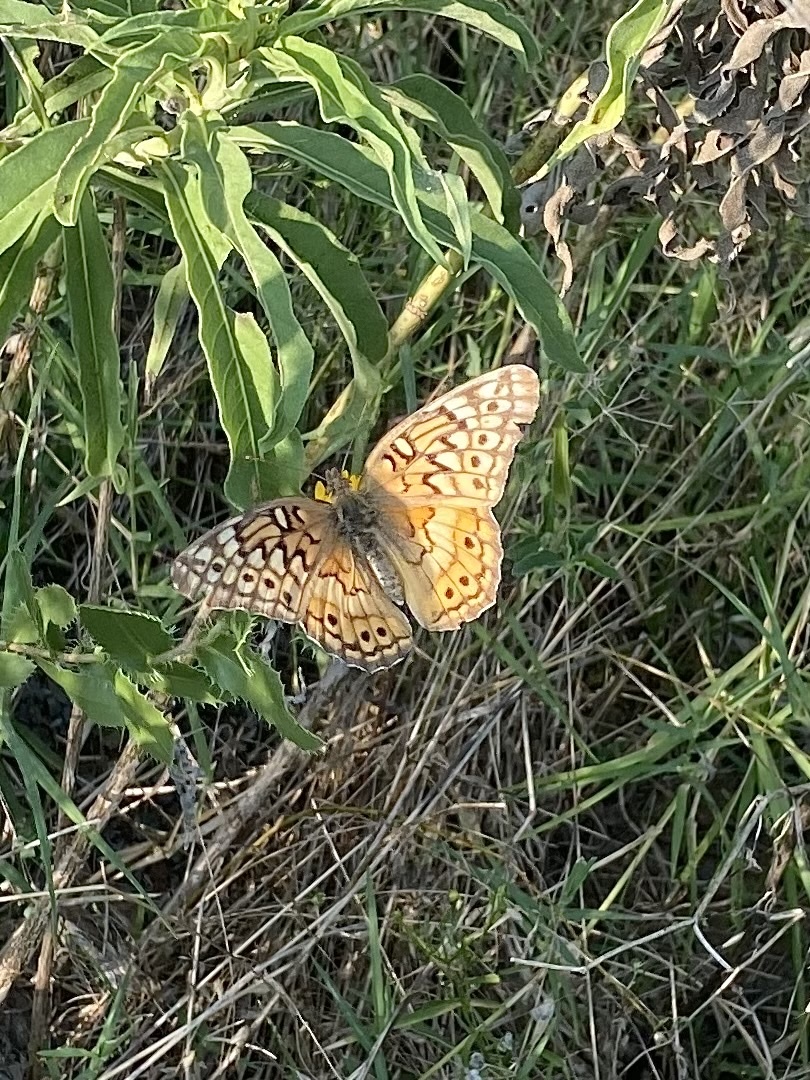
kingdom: Animalia
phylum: Arthropoda
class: Insecta
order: Lepidoptera
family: Nymphalidae
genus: Euptoieta
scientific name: Euptoieta claudia
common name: Variegated fritillary
